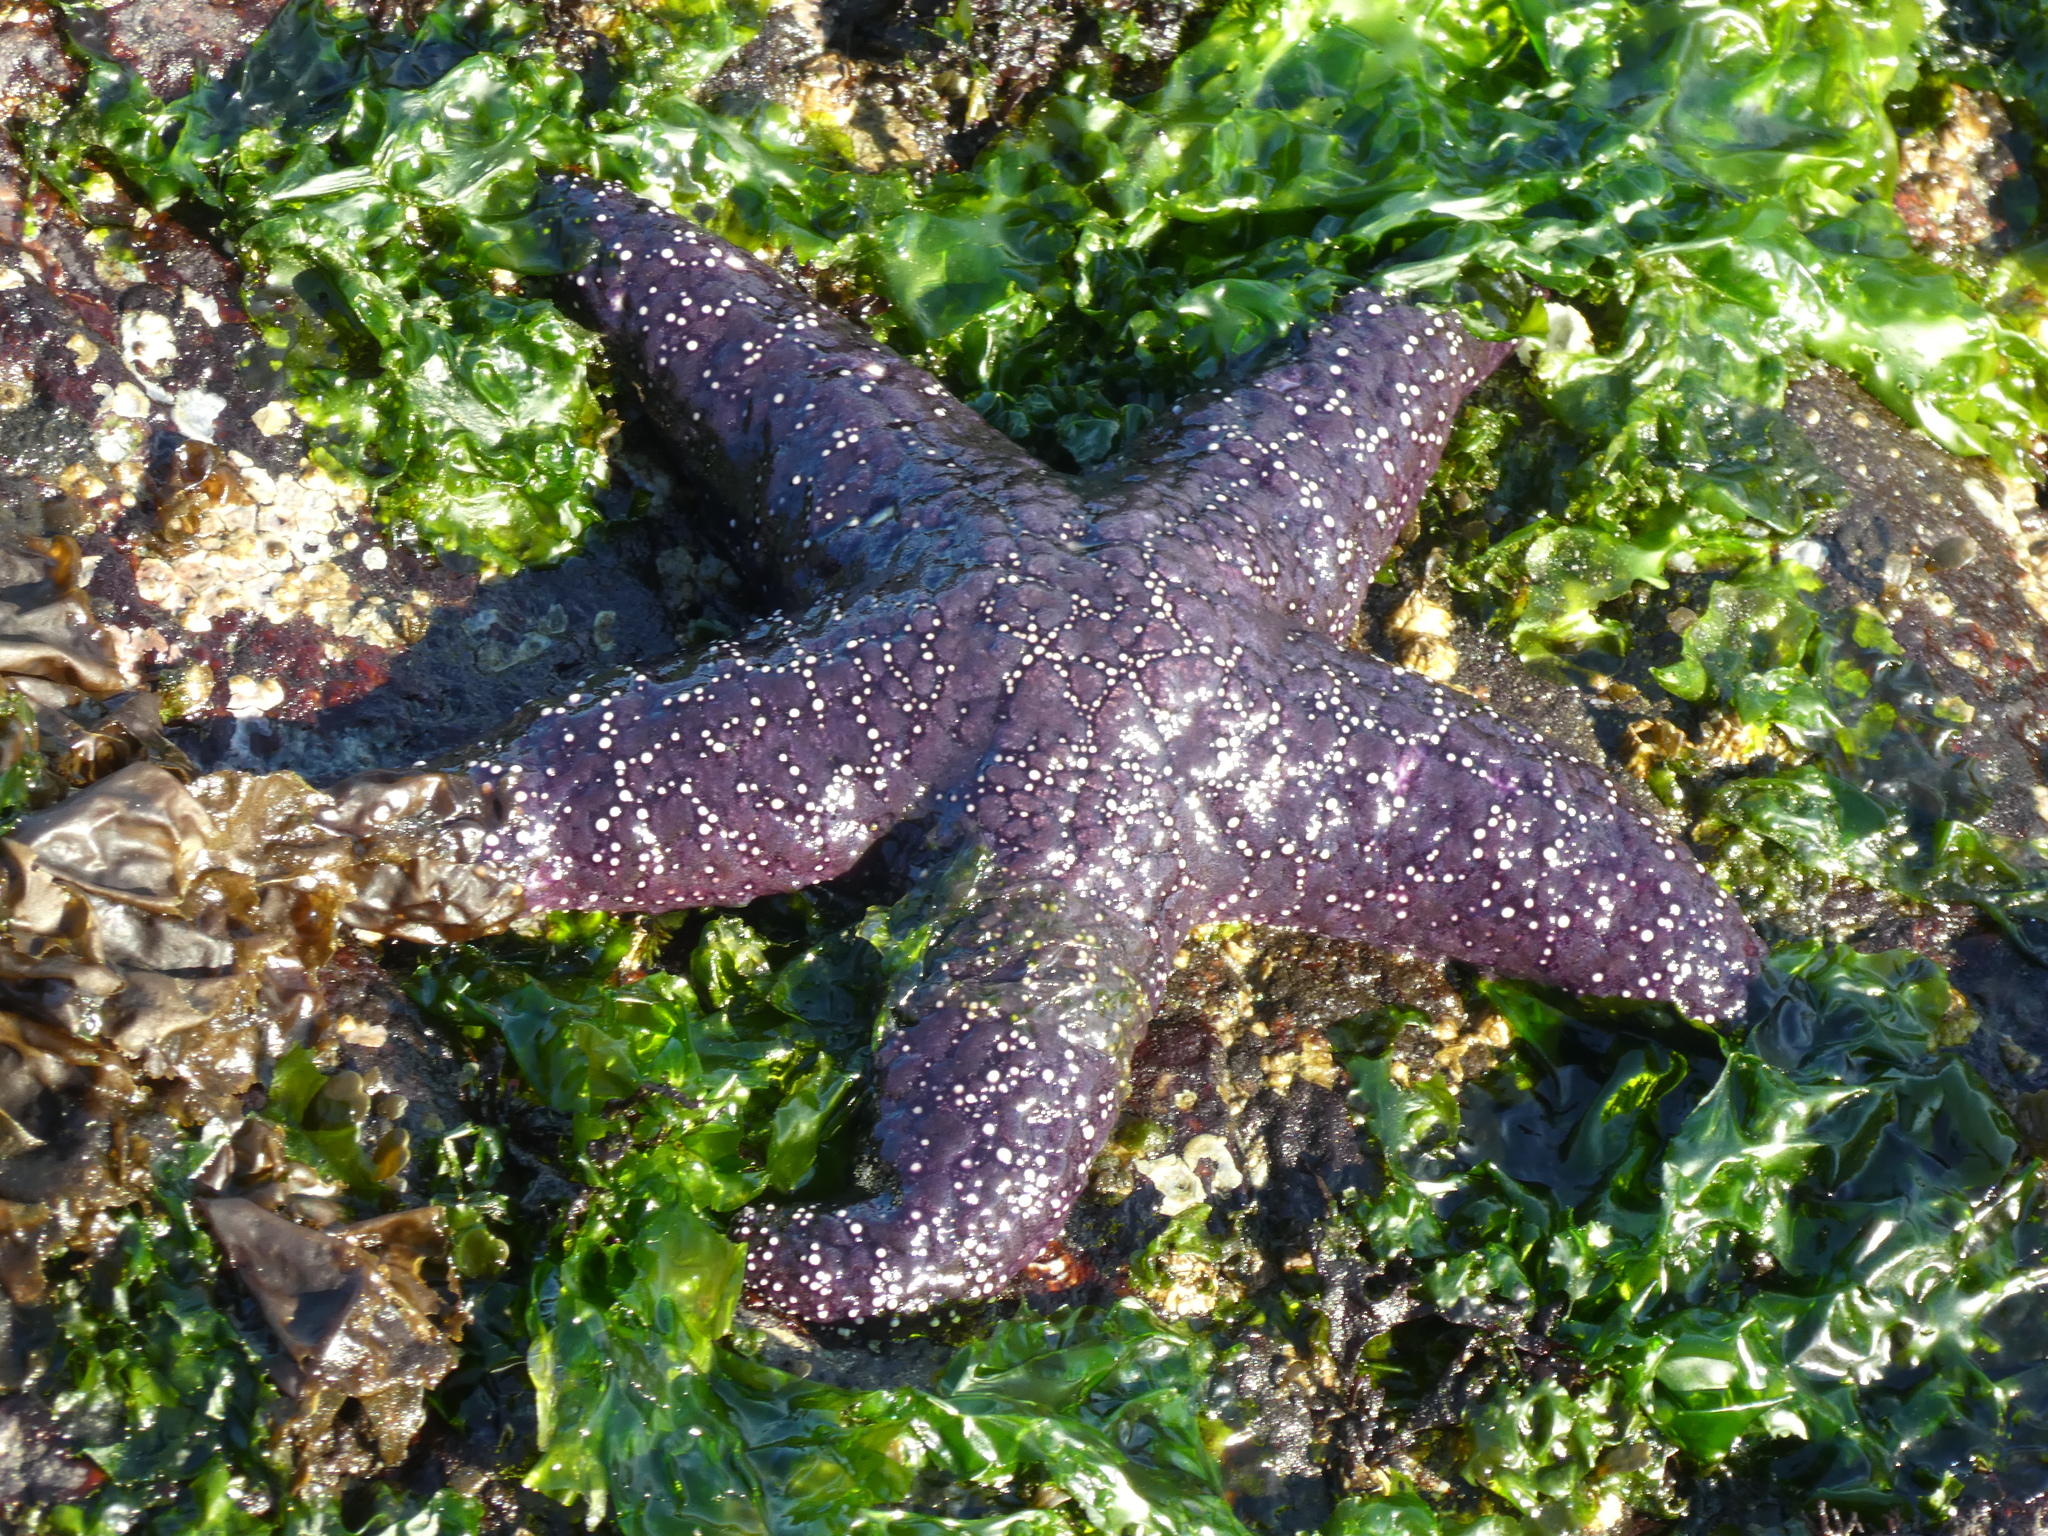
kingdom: Animalia
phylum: Echinodermata
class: Asteroidea
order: Forcipulatida
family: Asteriidae
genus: Pisaster
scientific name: Pisaster ochraceus
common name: Ochre stars
